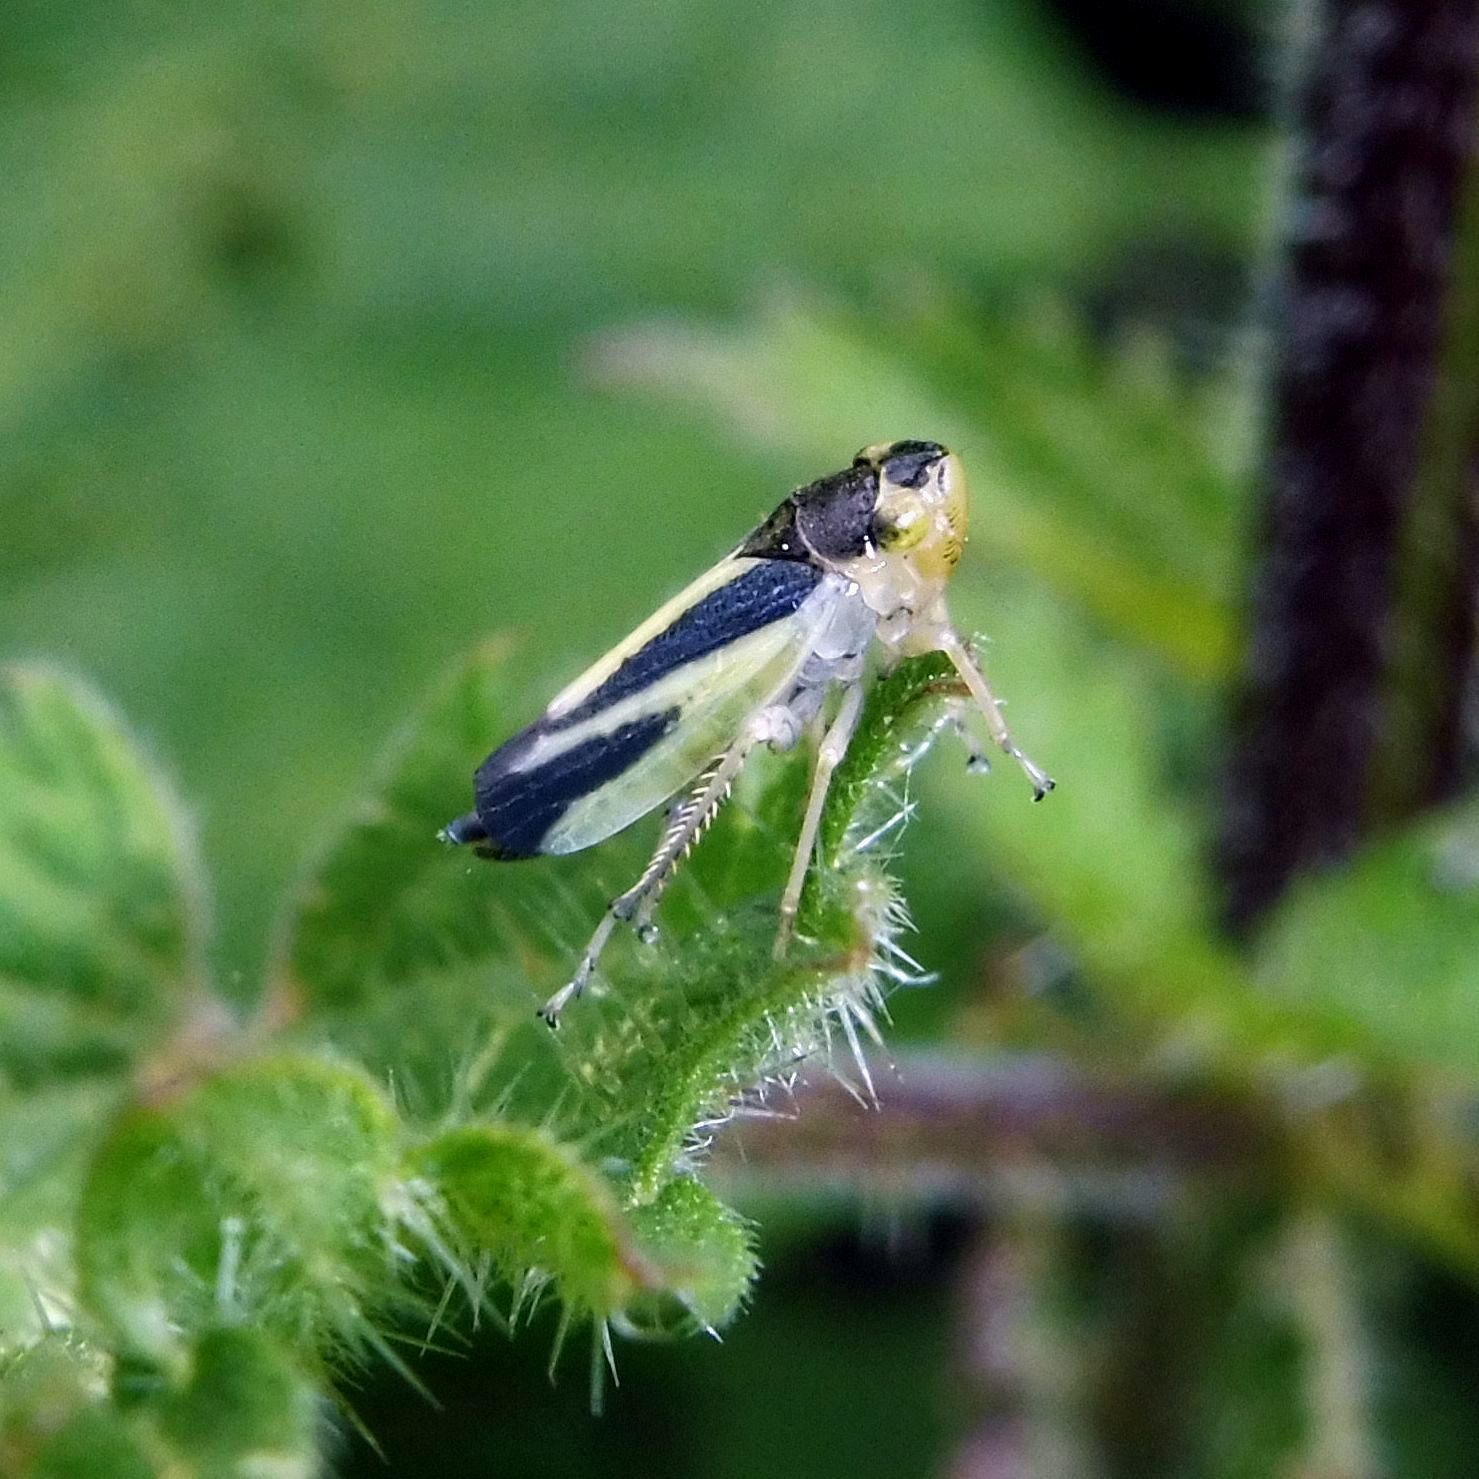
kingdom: Animalia
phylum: Arthropoda
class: Insecta
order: Hemiptera
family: Cicadellidae
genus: Evacanthus
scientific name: Evacanthus interruptus
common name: Leafhopper
